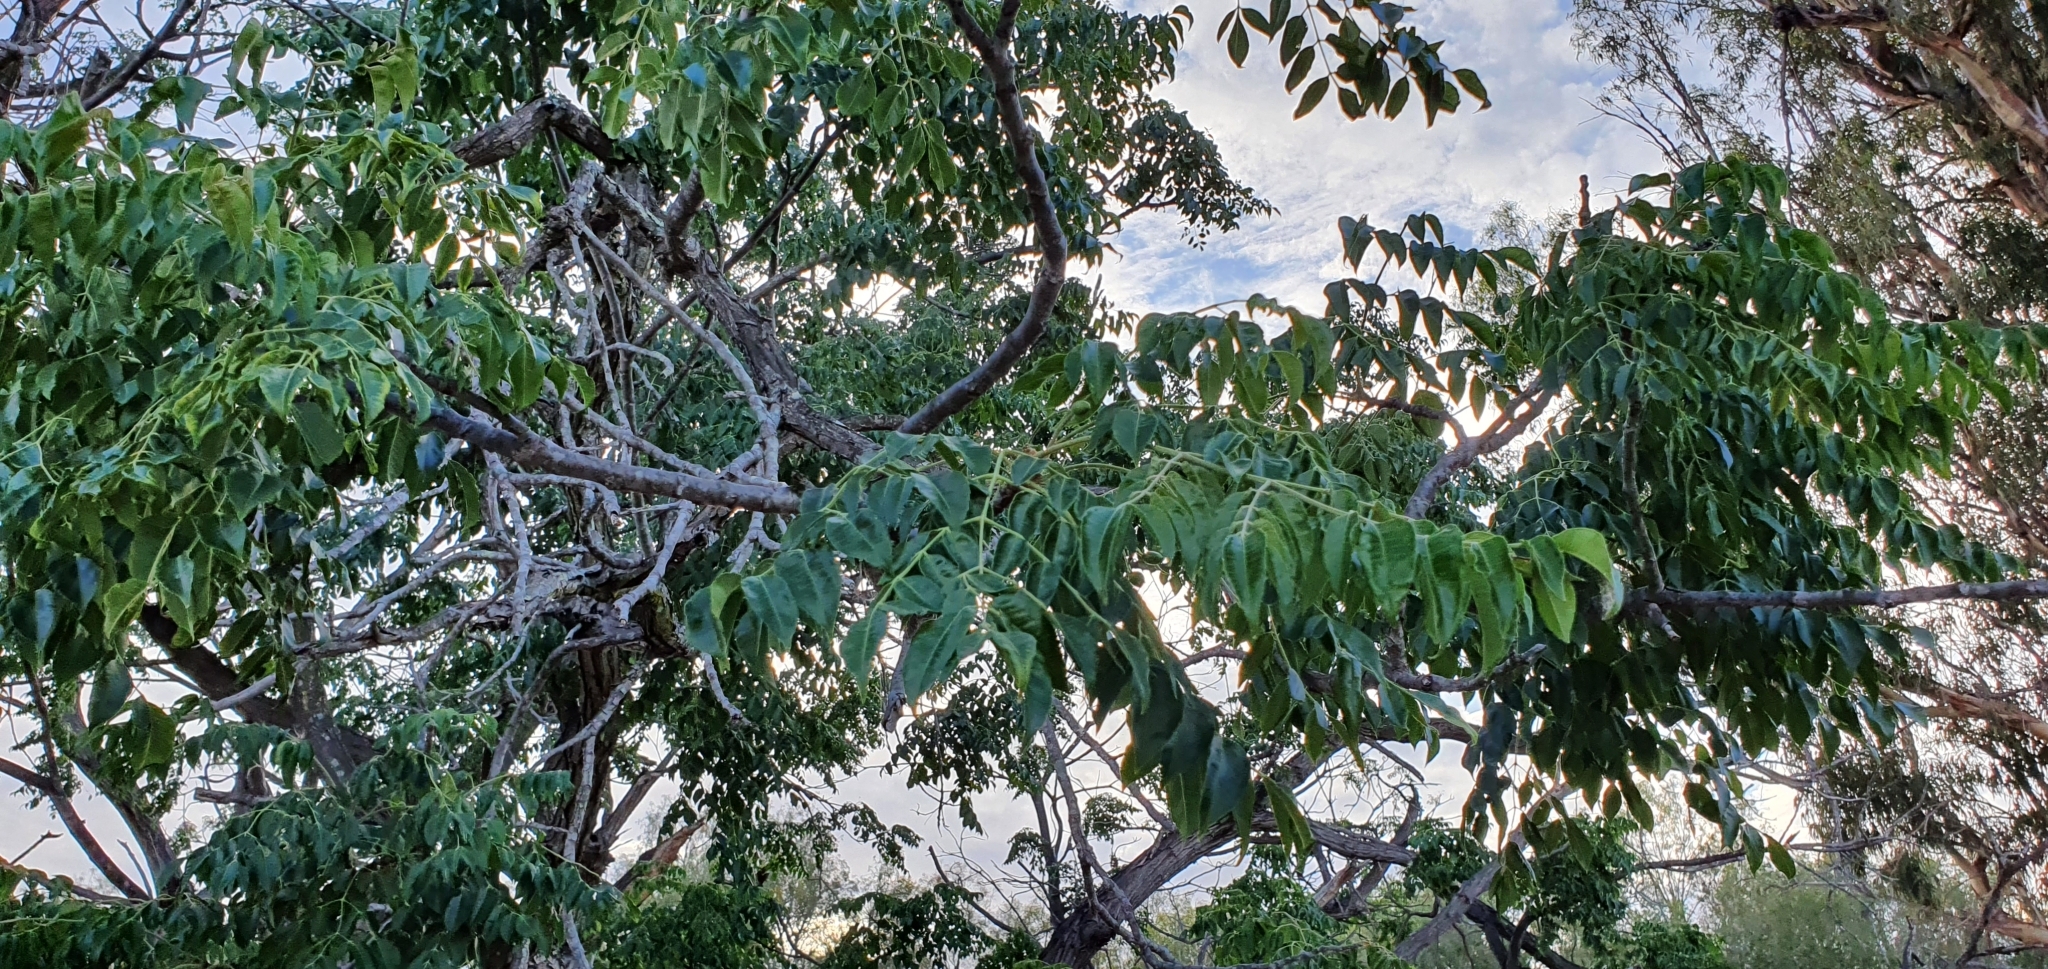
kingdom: Plantae
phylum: Tracheophyta
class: Magnoliopsida
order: Sapindales
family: Meliaceae
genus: Melia
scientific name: Melia azedarach
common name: Chinaberrytree
